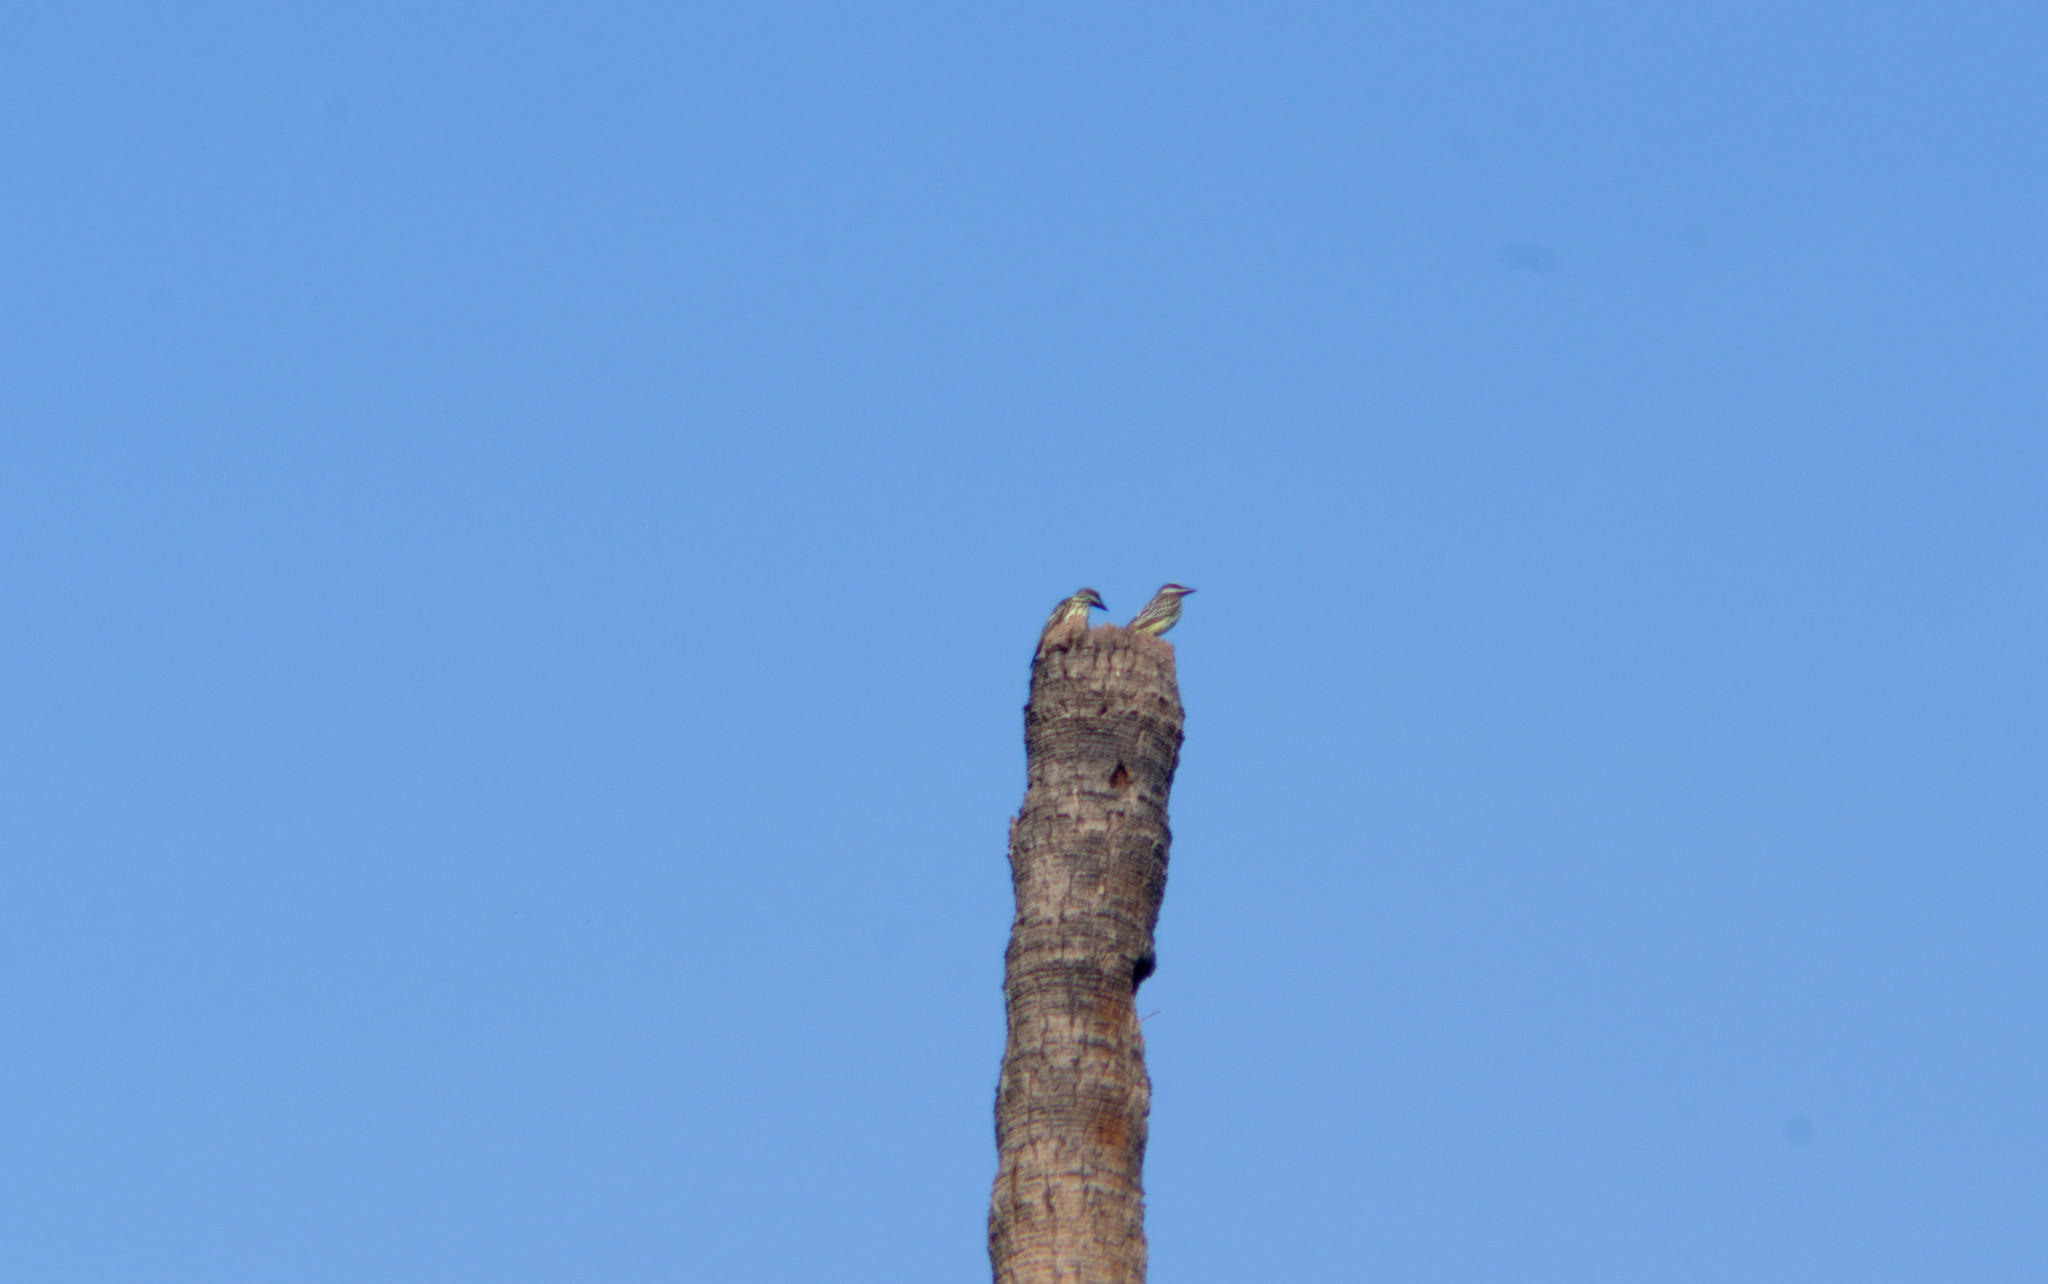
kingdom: Animalia
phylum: Chordata
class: Aves
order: Passeriformes
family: Tyrannidae
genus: Myiodynastes
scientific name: Myiodynastes luteiventris
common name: Sulphur-bellied flycatcher
